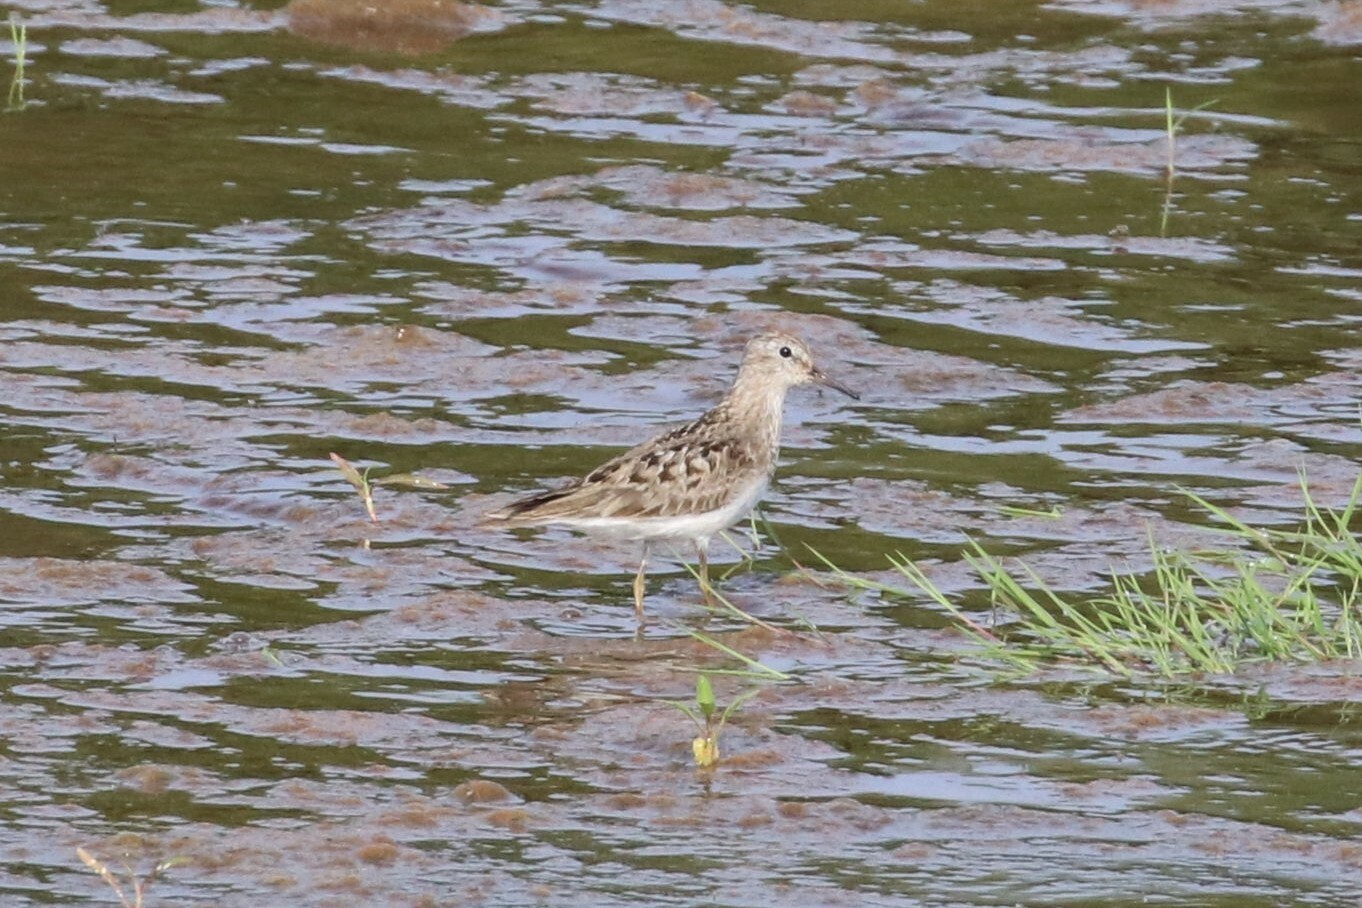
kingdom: Animalia
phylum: Chordata
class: Aves
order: Charadriiformes
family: Scolopacidae
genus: Calidris
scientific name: Calidris temminckii
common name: Temminck's stint
